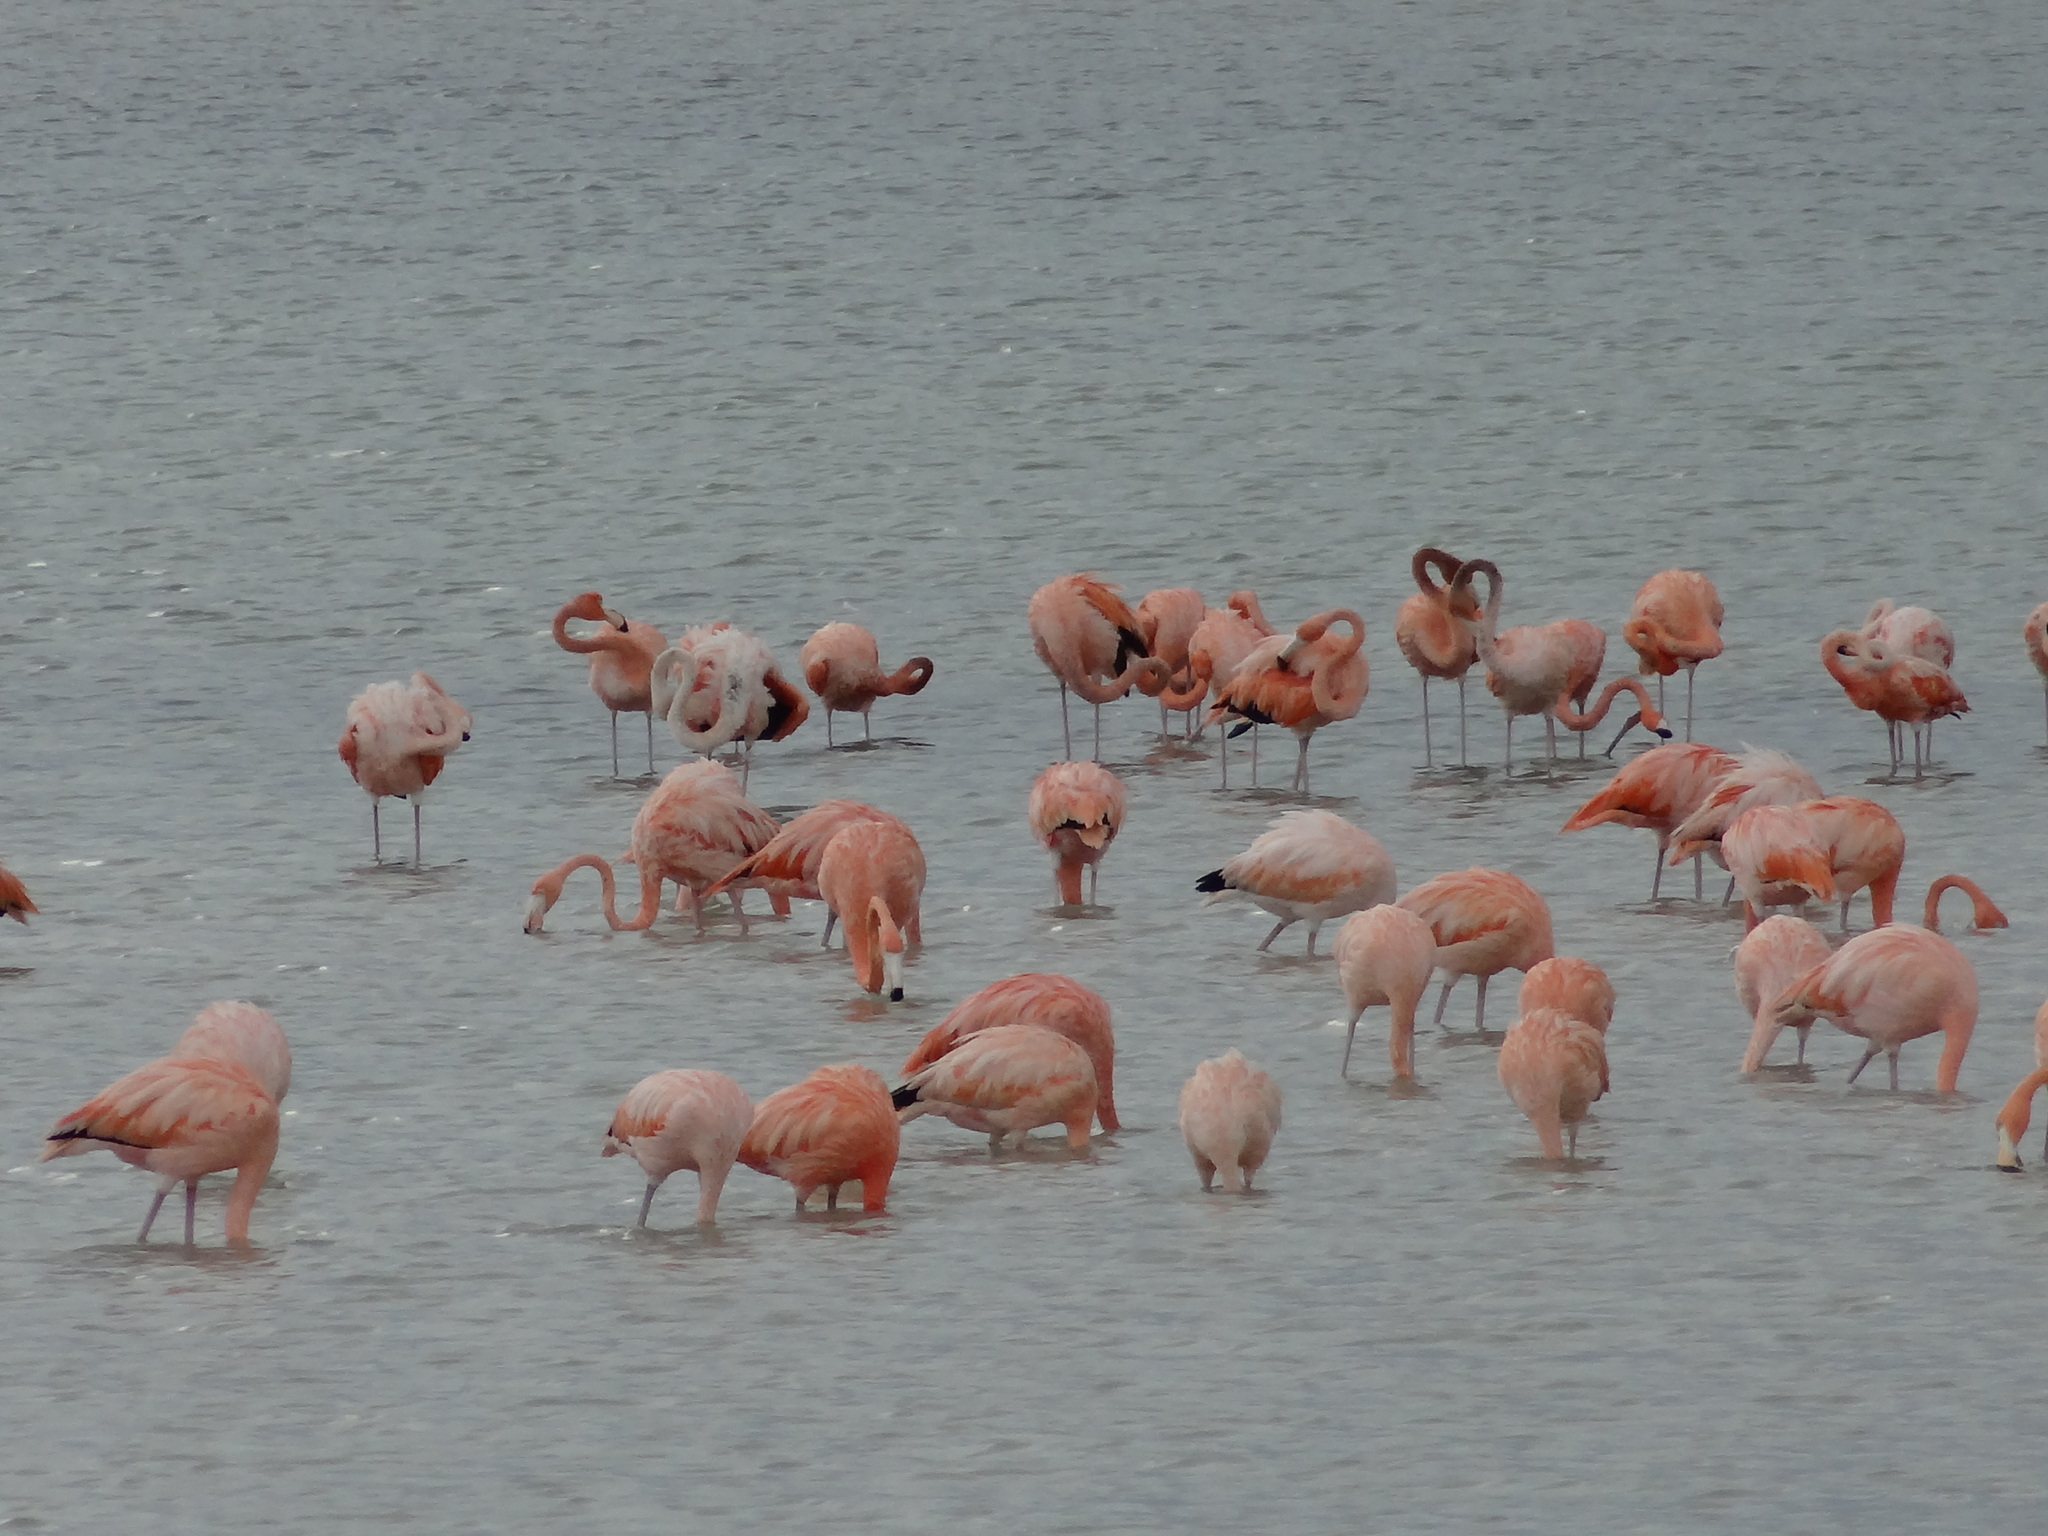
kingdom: Animalia
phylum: Chordata
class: Aves
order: Phoenicopteriformes
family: Phoenicopteridae
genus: Phoenicopterus
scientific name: Phoenicopterus ruber
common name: American flamingo
